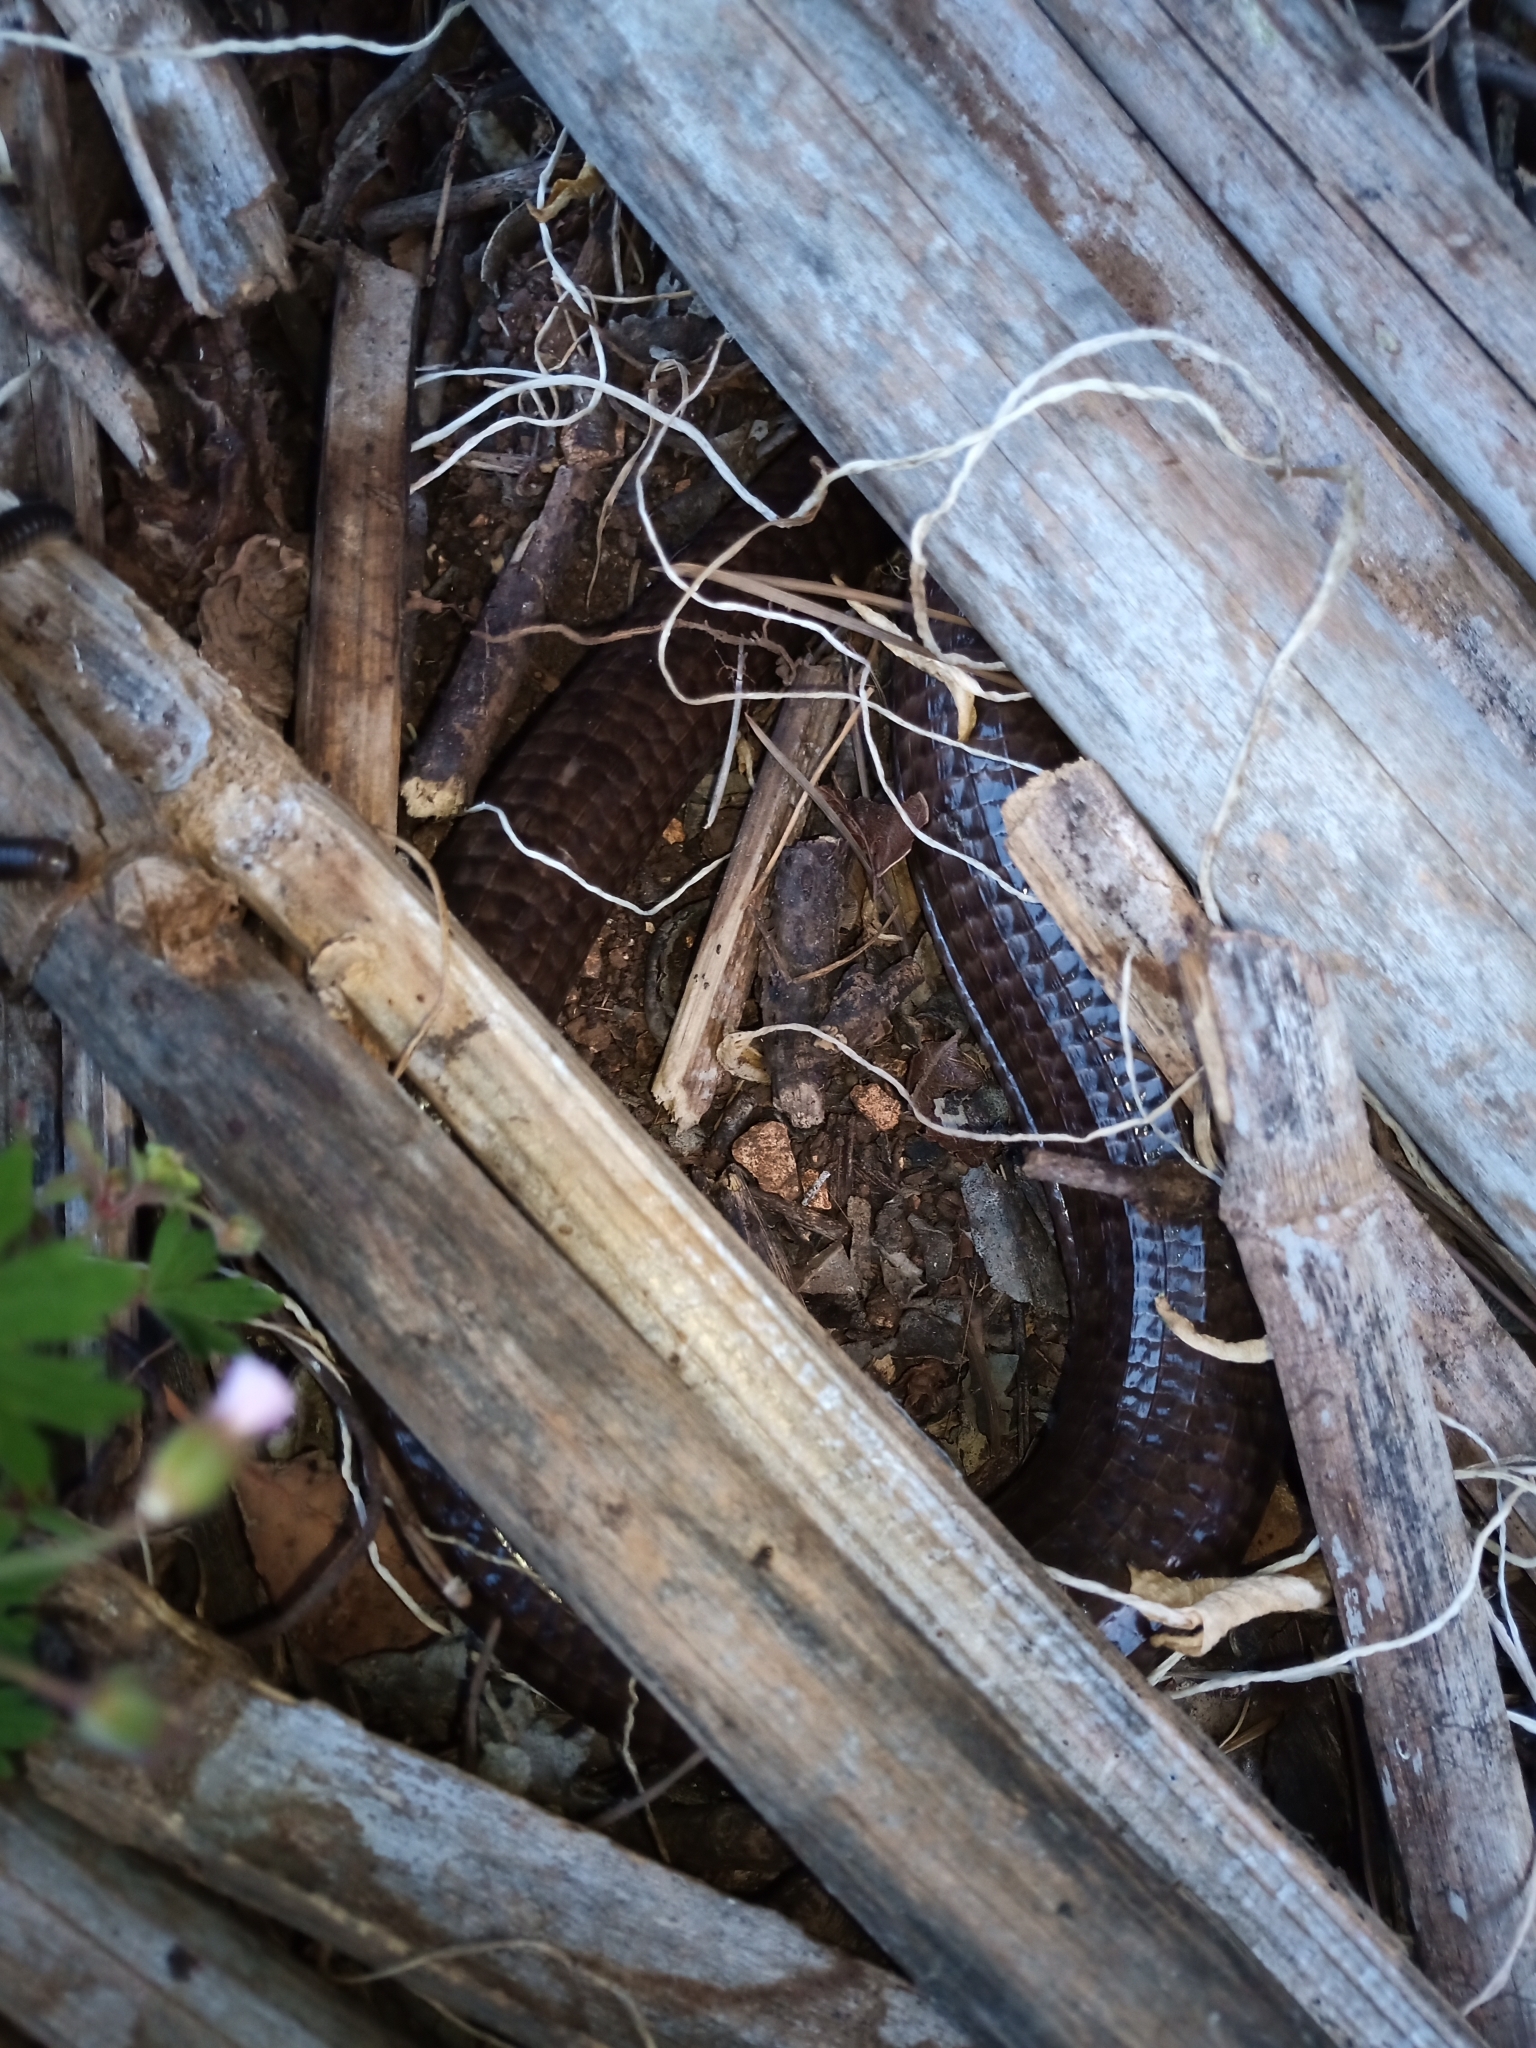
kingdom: Animalia
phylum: Chordata
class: Squamata
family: Anguidae
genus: Pseudopus
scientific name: Pseudopus apodus
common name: European glass lizard
